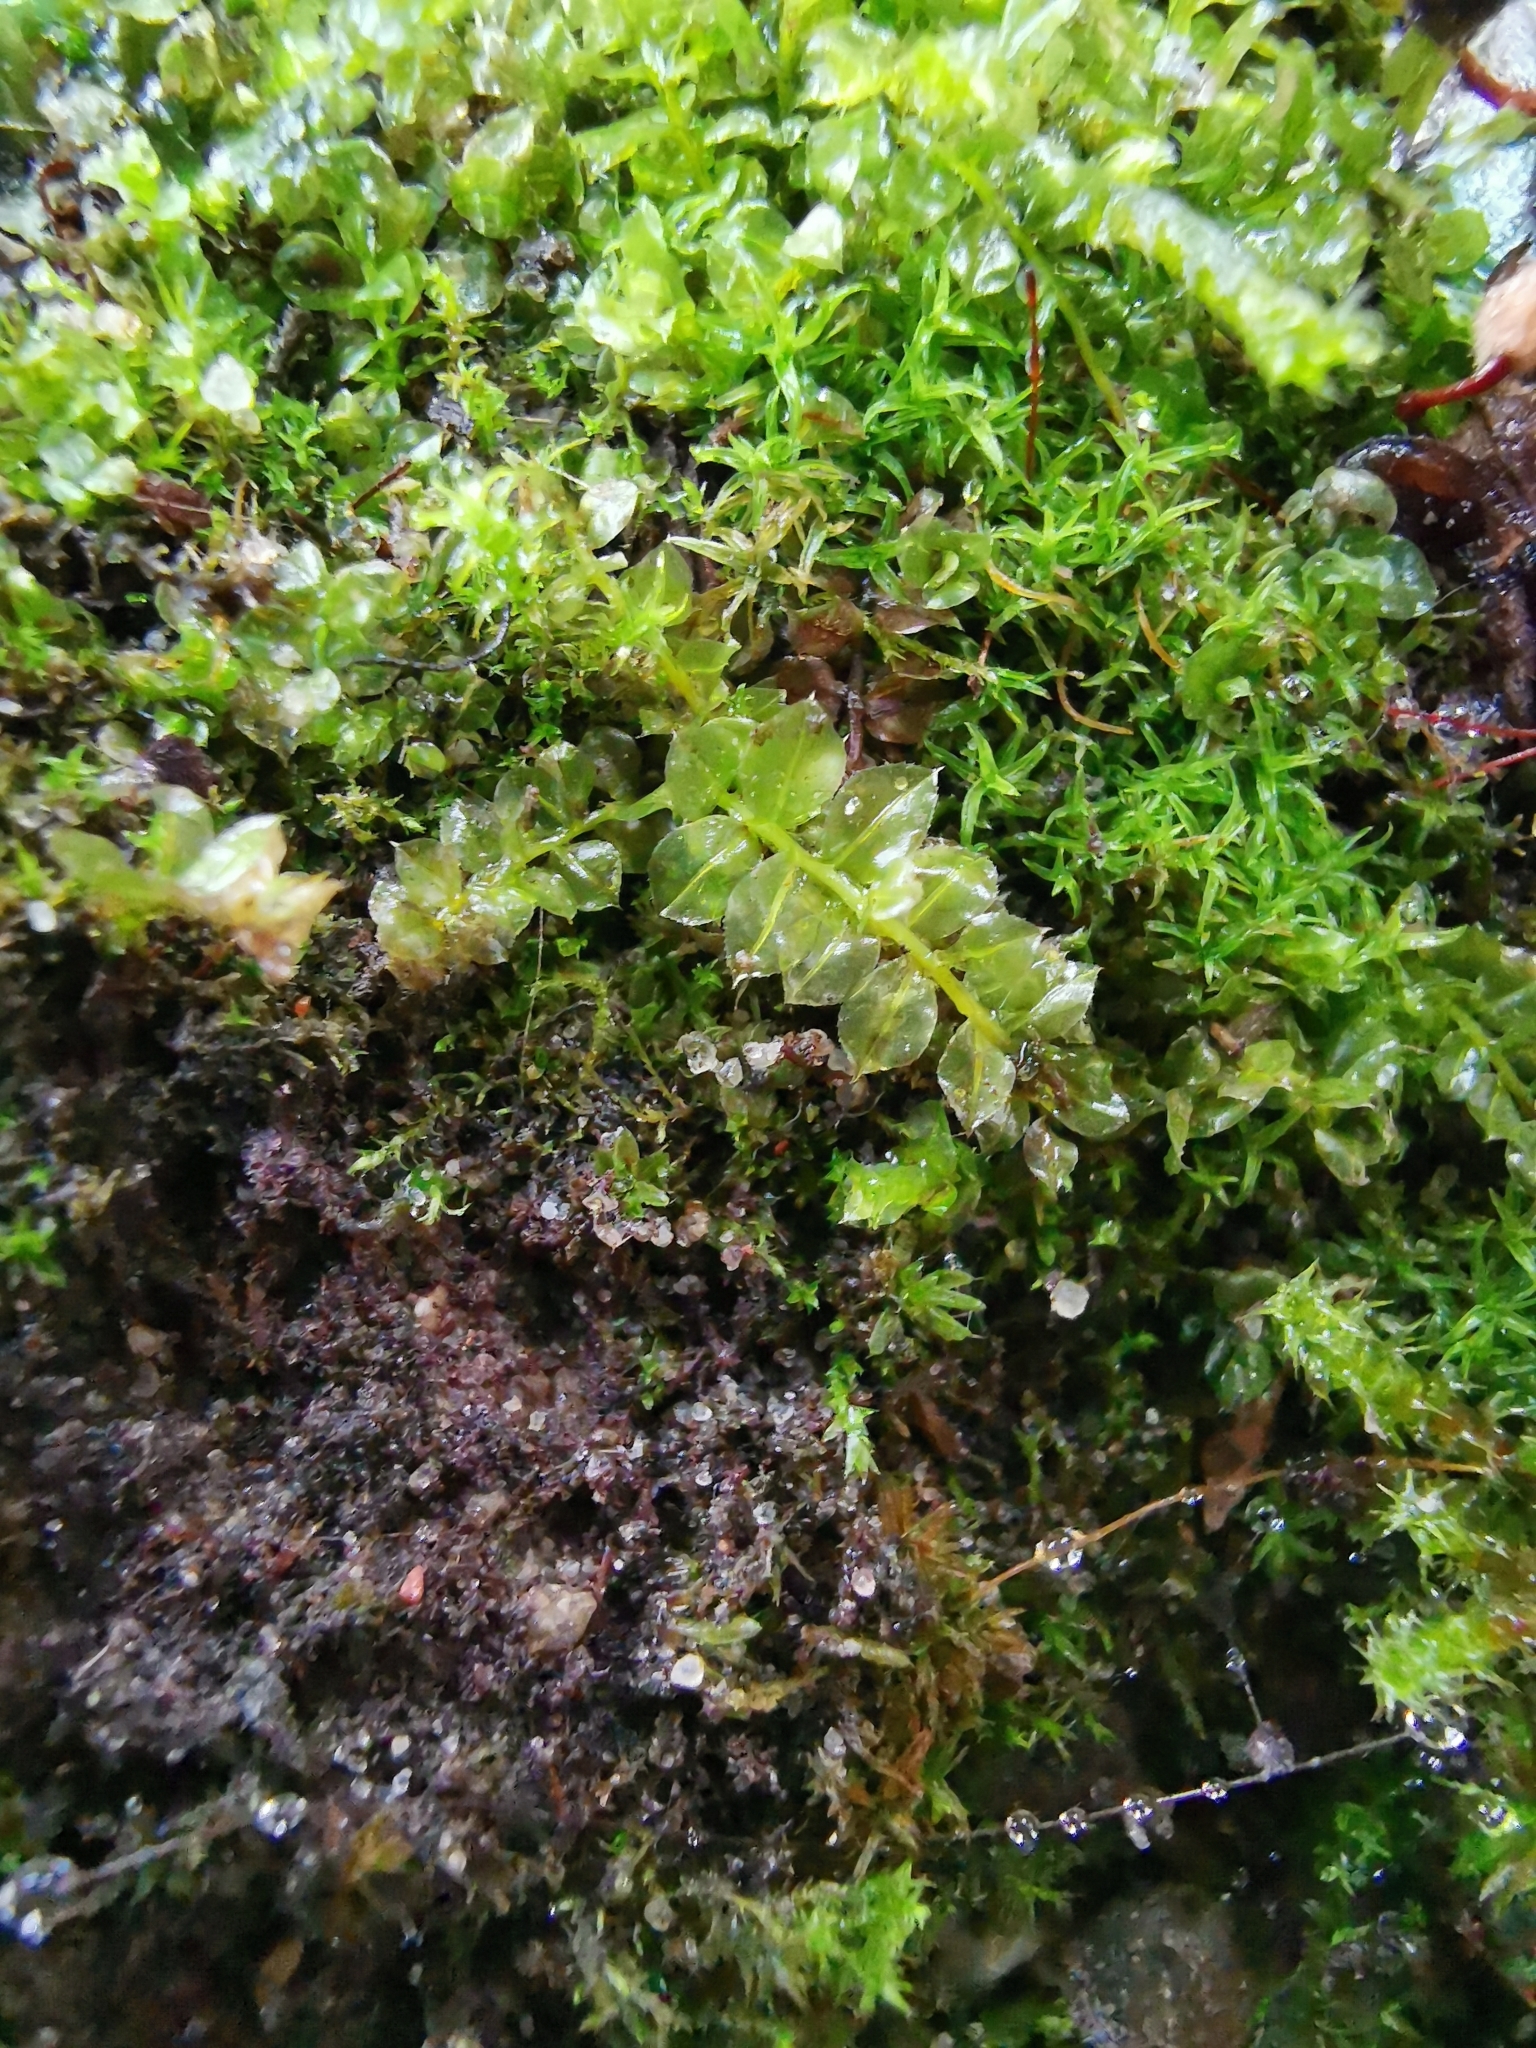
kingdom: Plantae
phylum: Bryophyta
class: Bryopsida
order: Bryales
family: Mniaceae
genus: Plagiomnium
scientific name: Plagiomnium cuspidatum
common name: Woodsy leafy moss
